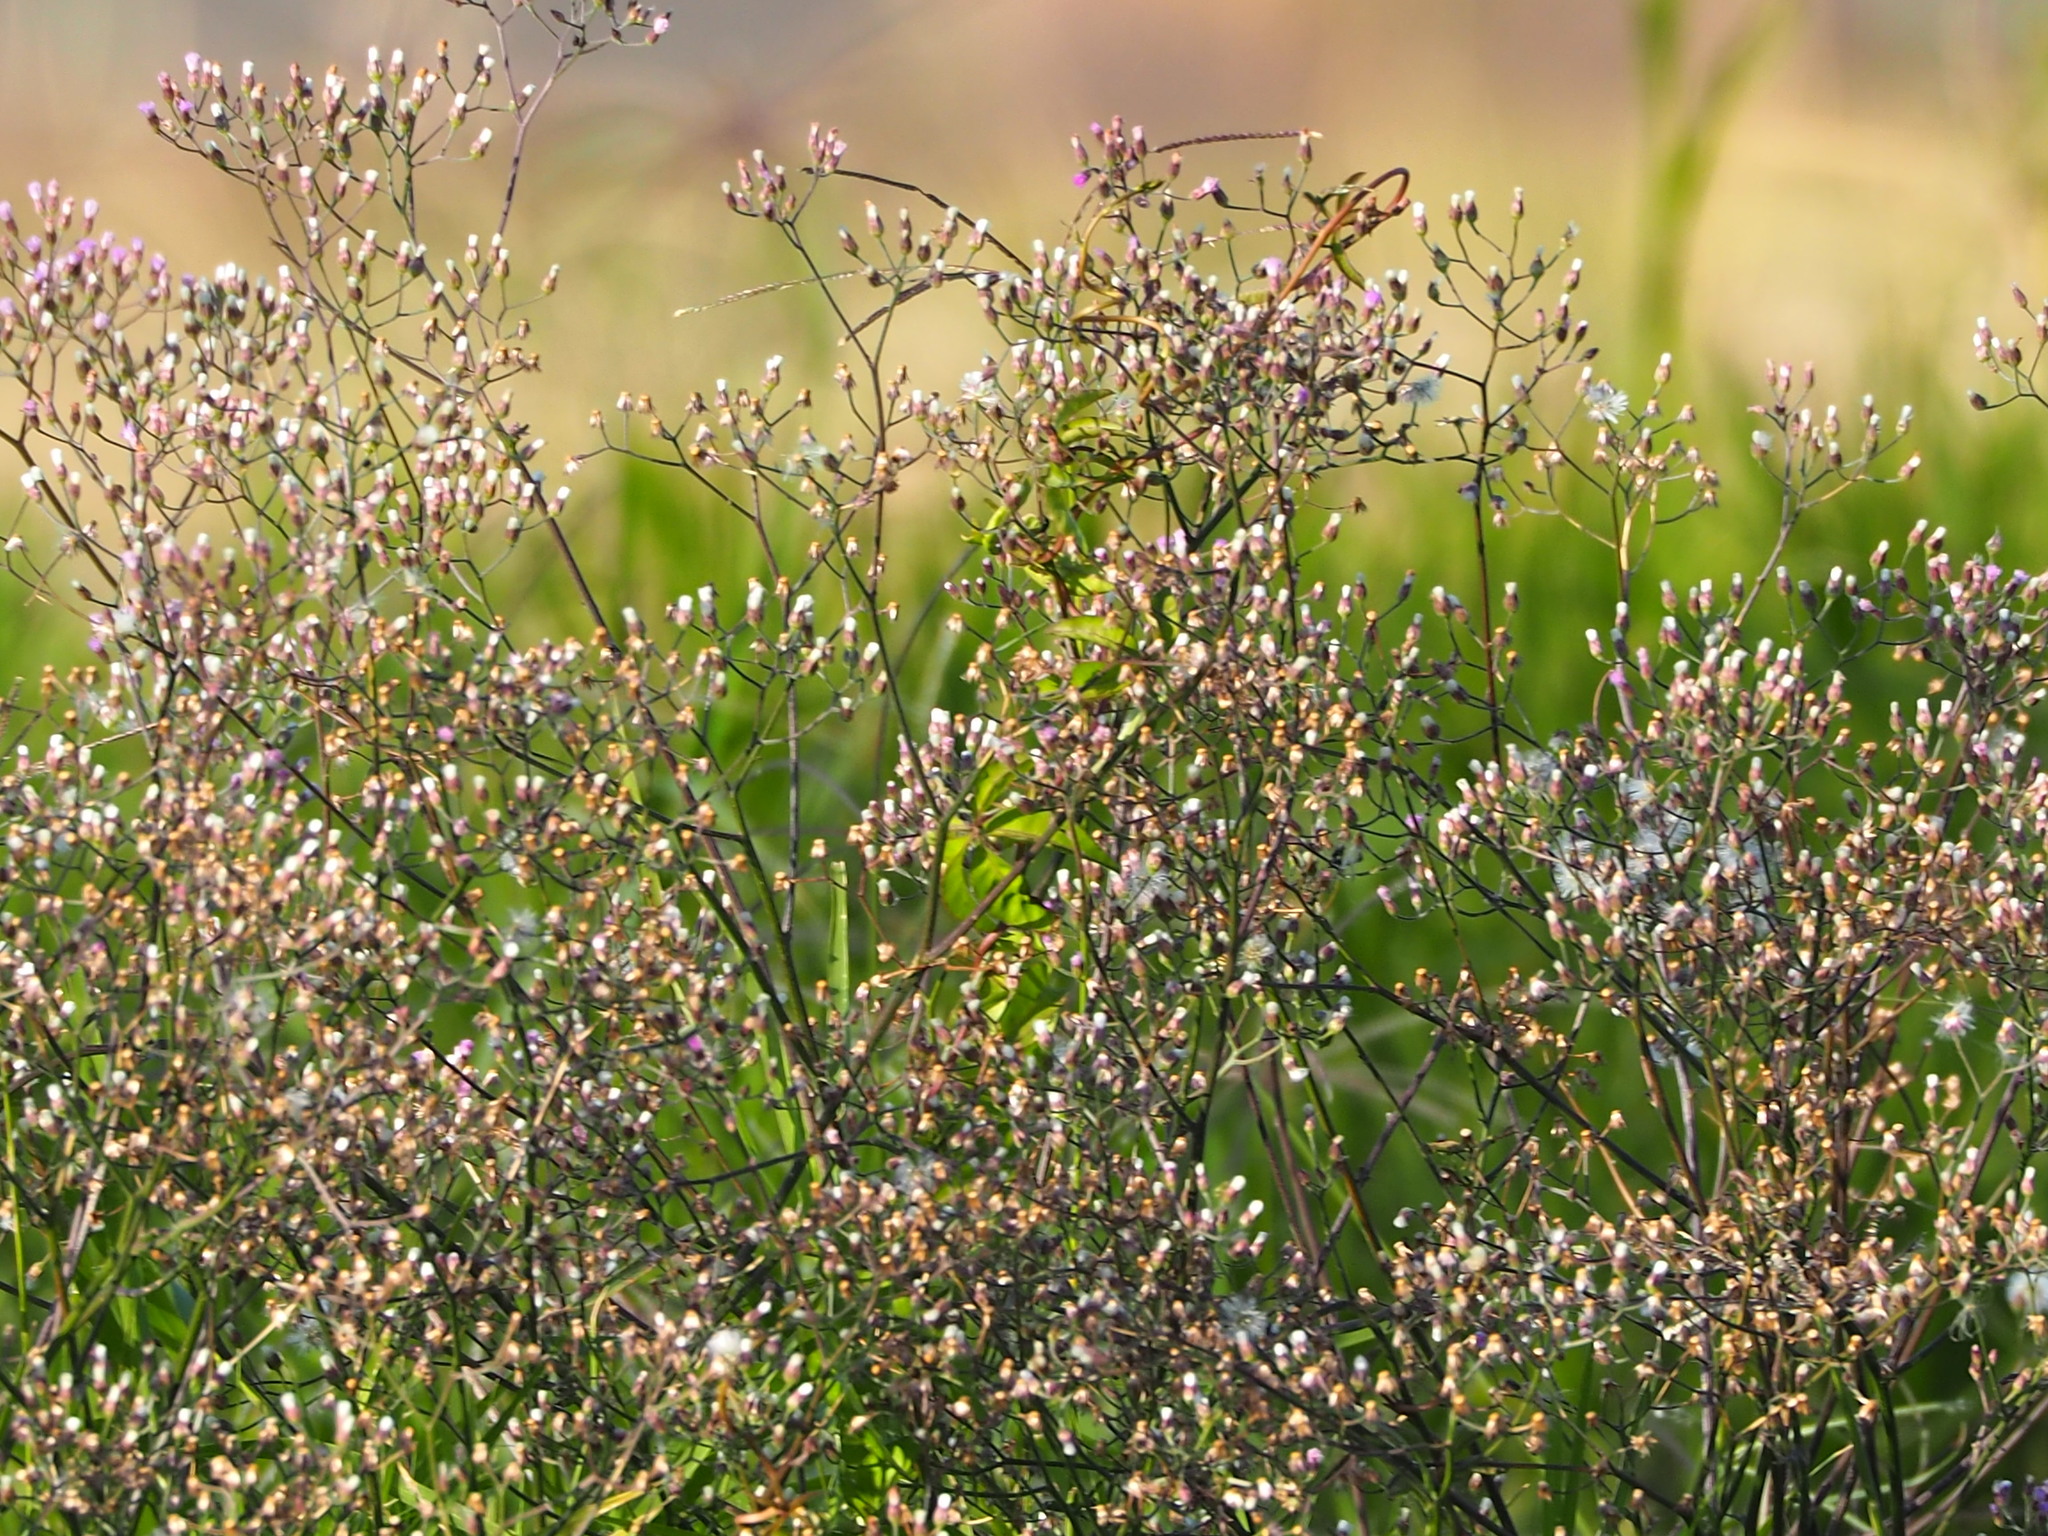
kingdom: Plantae
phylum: Tracheophyta
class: Magnoliopsida
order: Asterales
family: Asteraceae
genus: Cyanthillium
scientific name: Cyanthillium cinereum
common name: Little ironweed
